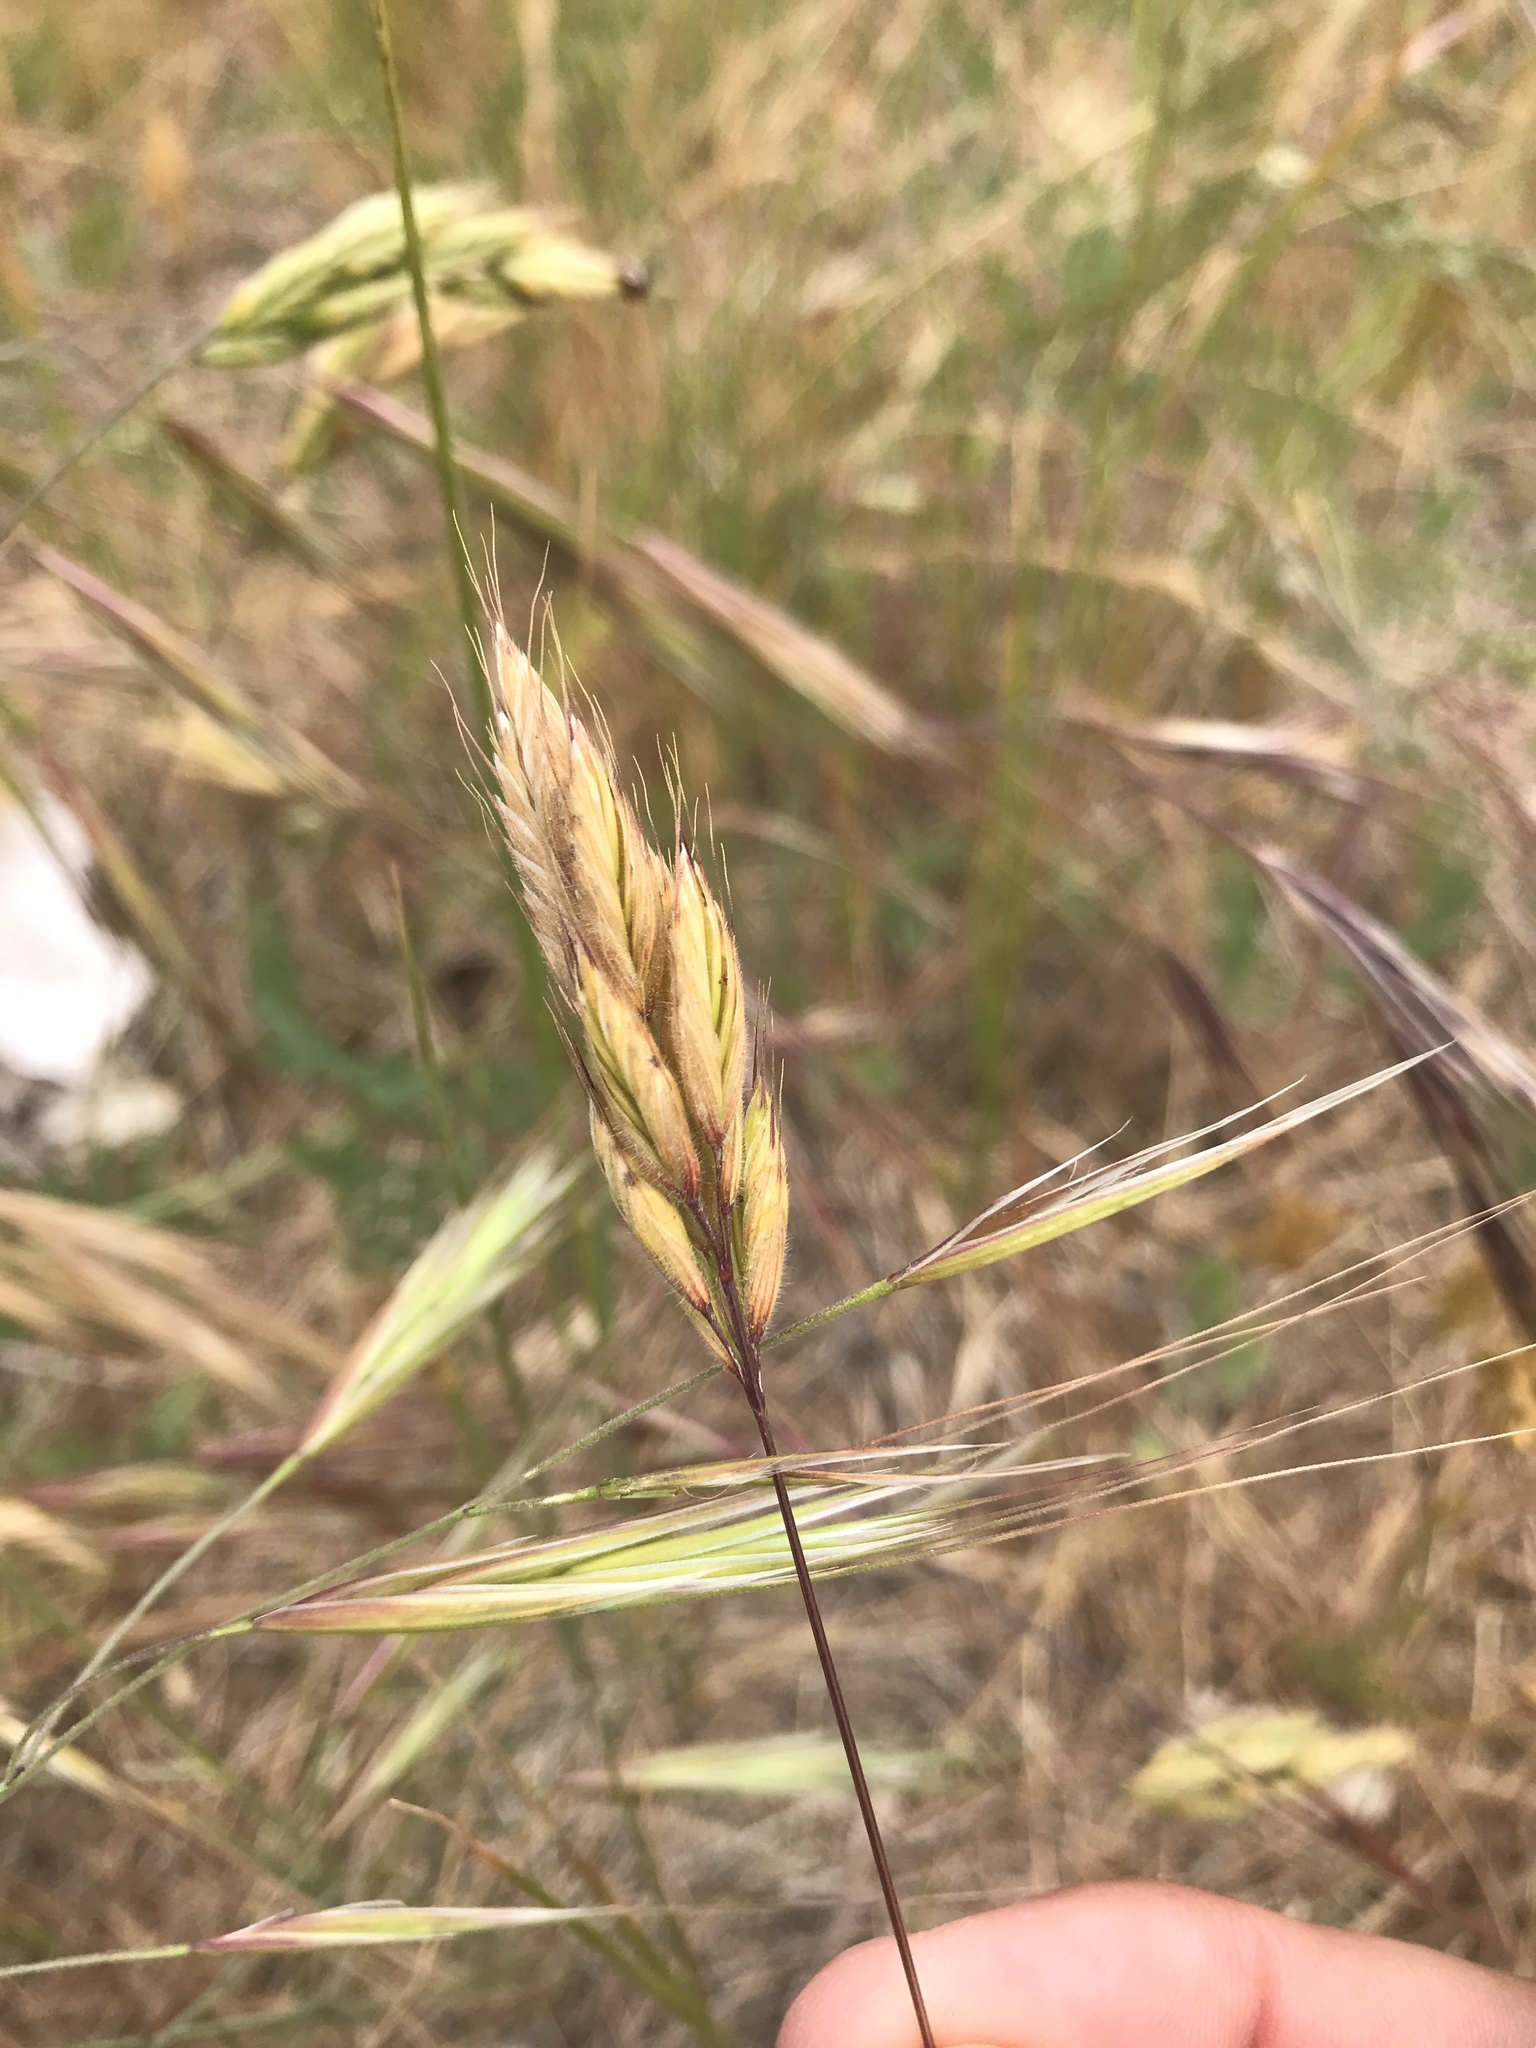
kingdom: Plantae
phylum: Tracheophyta
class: Liliopsida
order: Poales
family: Poaceae
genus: Bromus
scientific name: Bromus hordeaceus
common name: Soft brome
